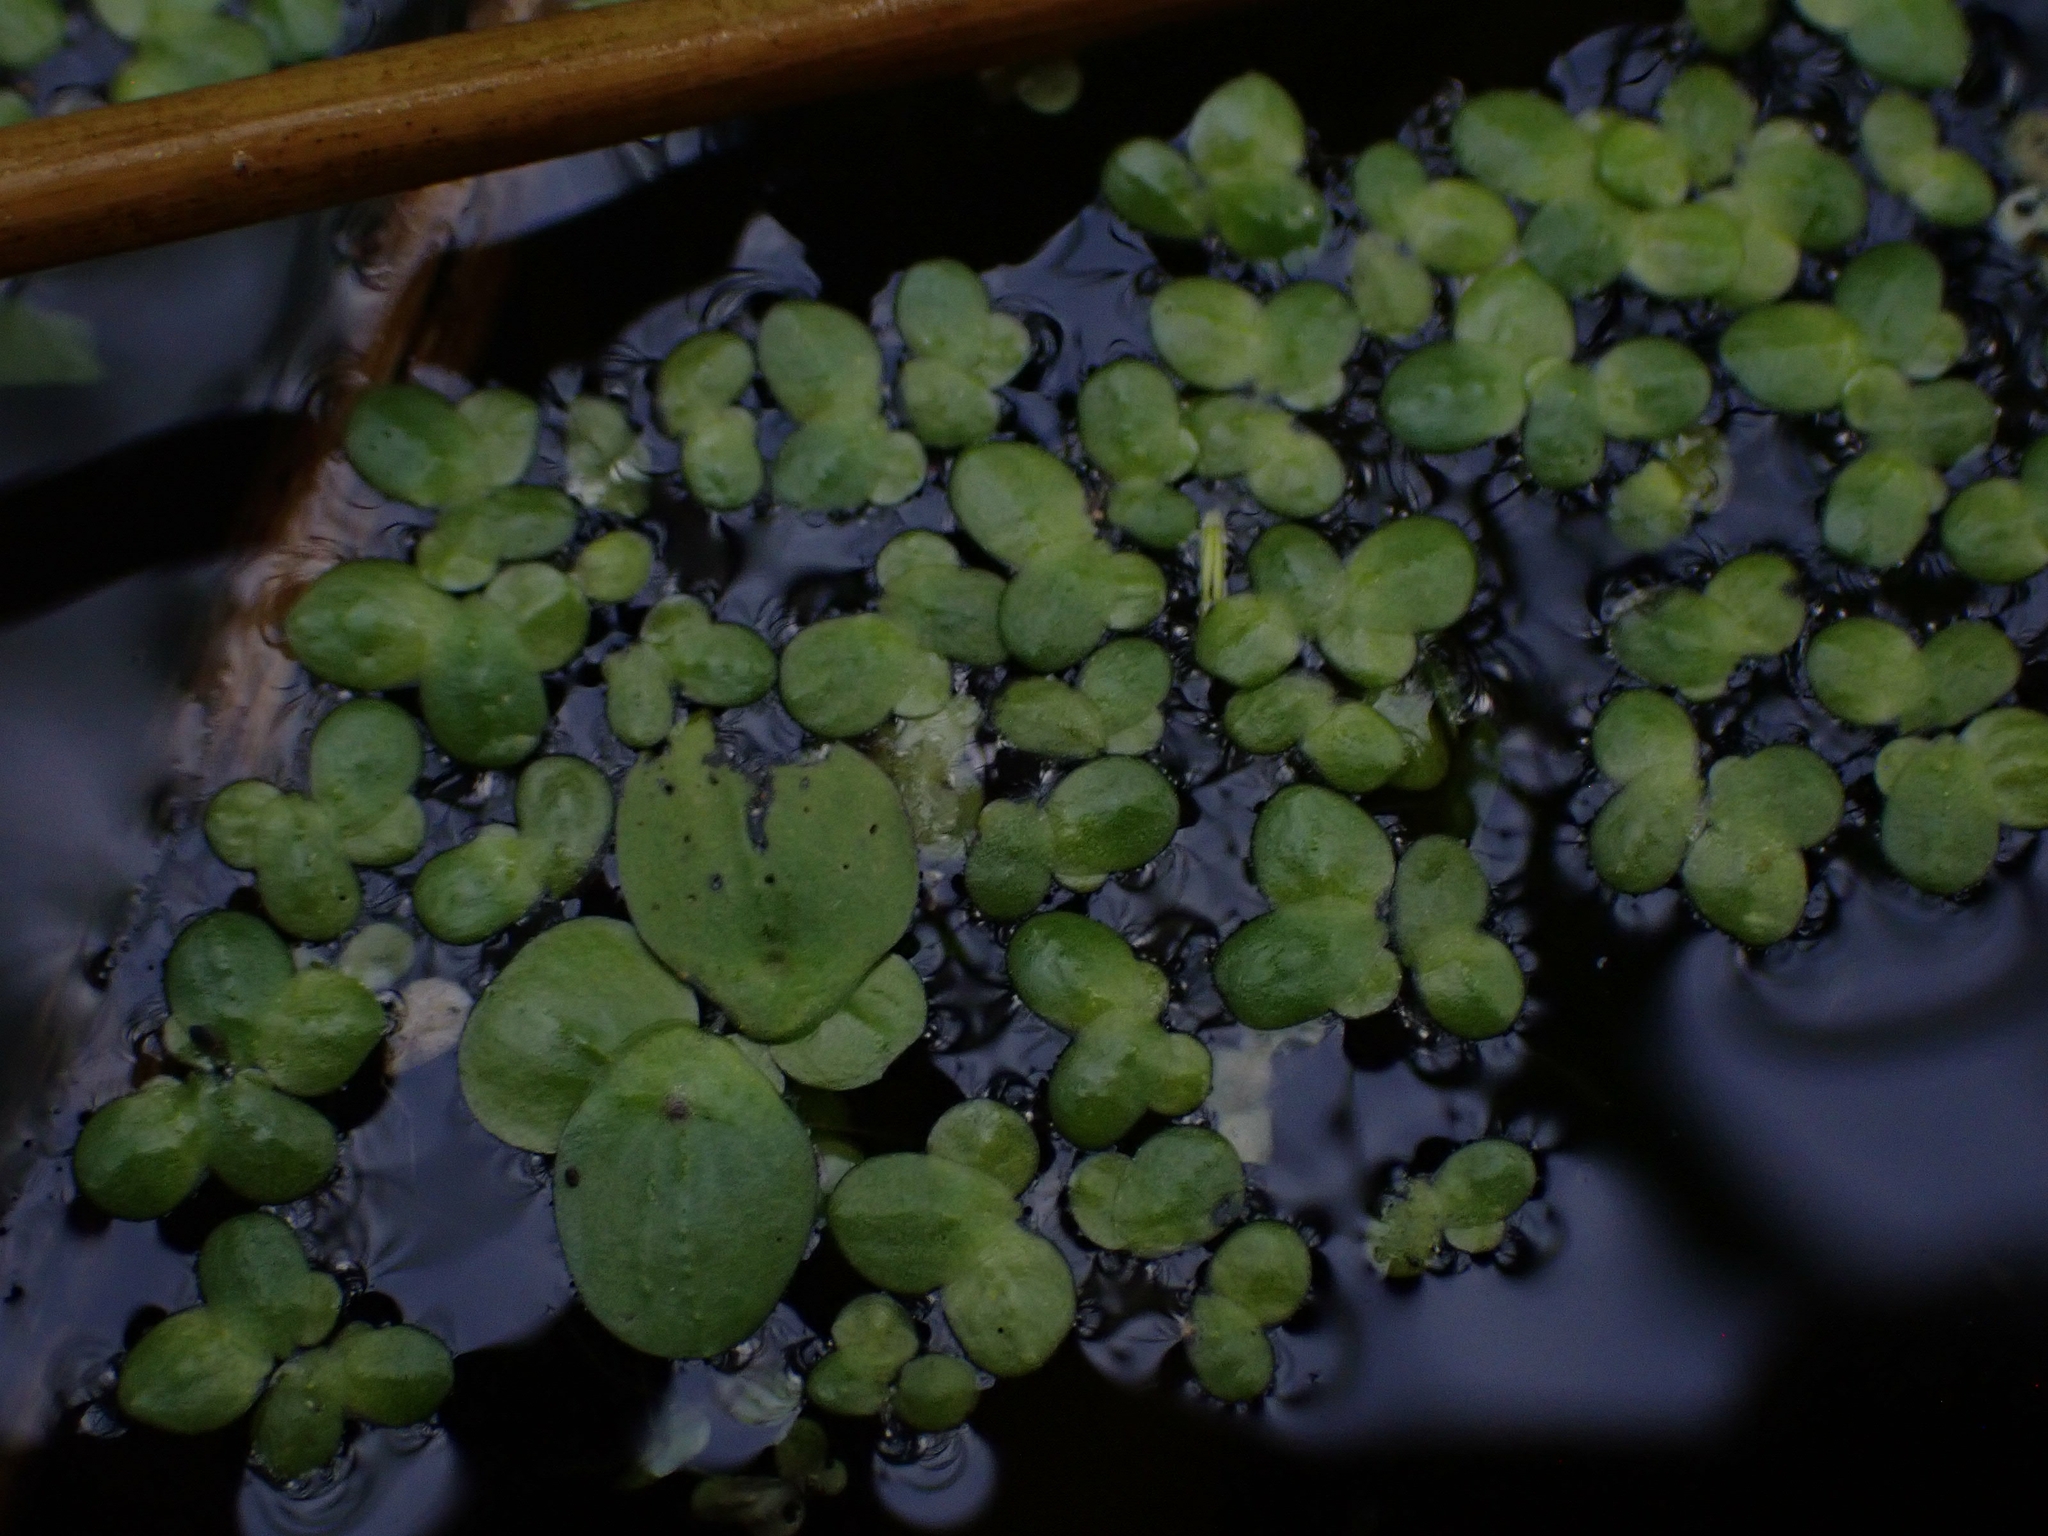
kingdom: Plantae
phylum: Tracheophyta
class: Liliopsida
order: Alismatales
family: Araceae
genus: Lemna
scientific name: Lemna turionifera
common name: Perennial duckweed
